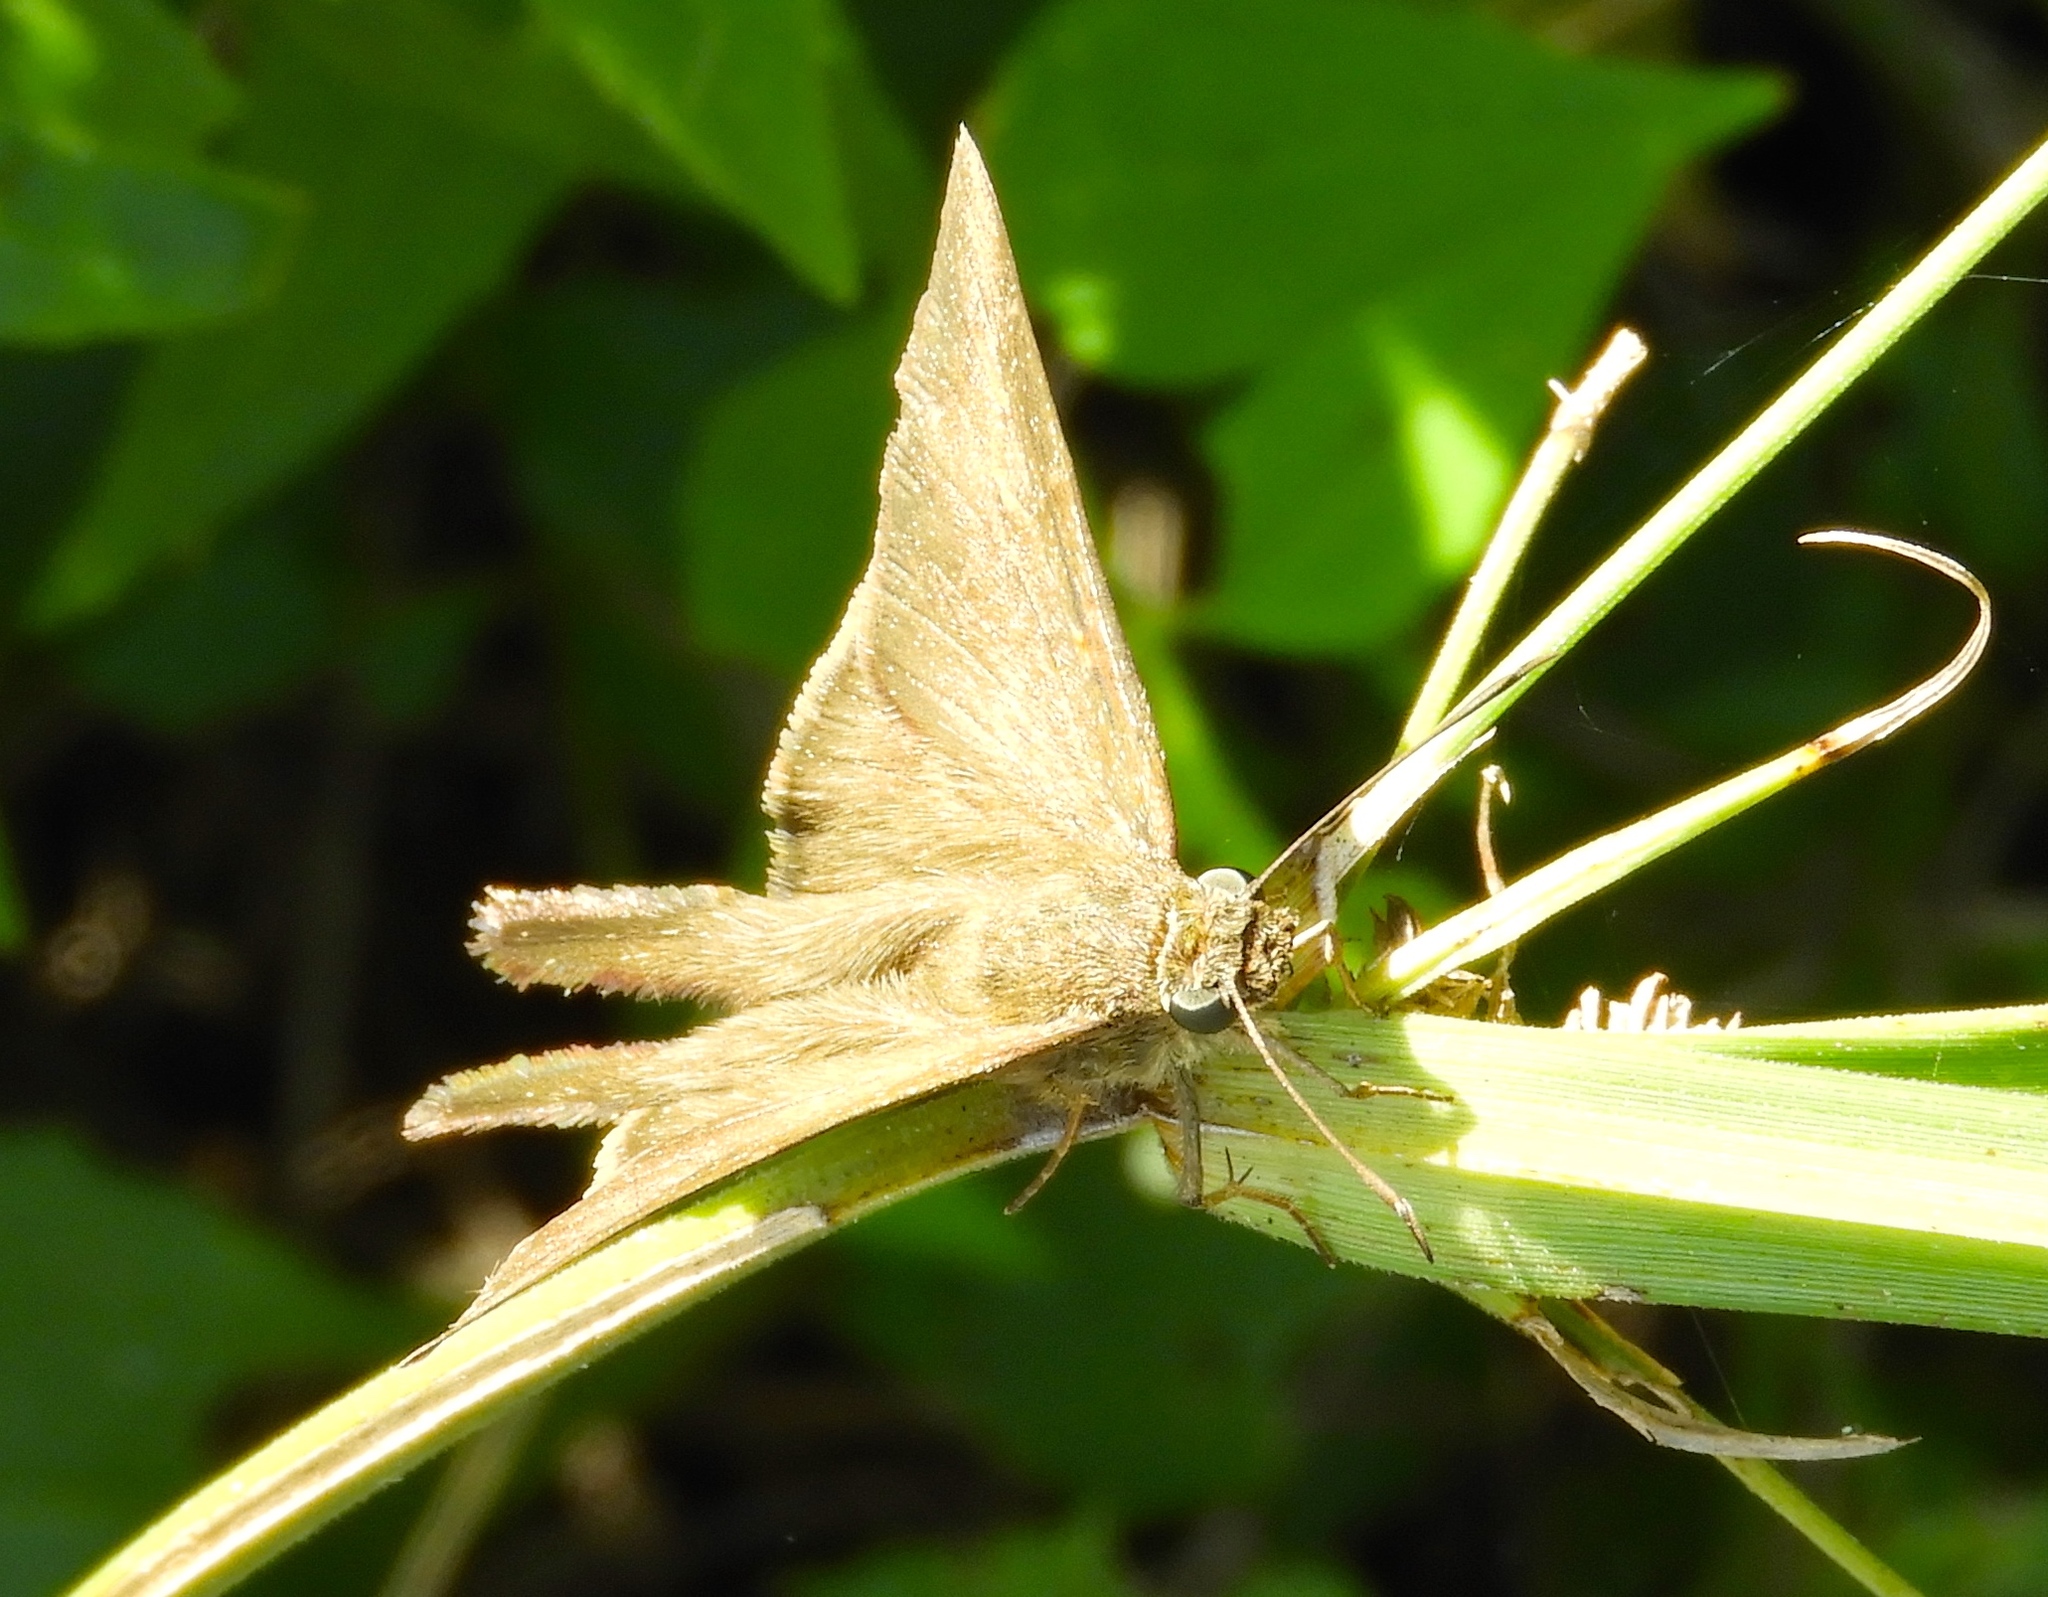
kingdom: Animalia
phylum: Arthropoda
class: Insecta
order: Lepidoptera
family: Hesperiidae
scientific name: Hesperiidae
